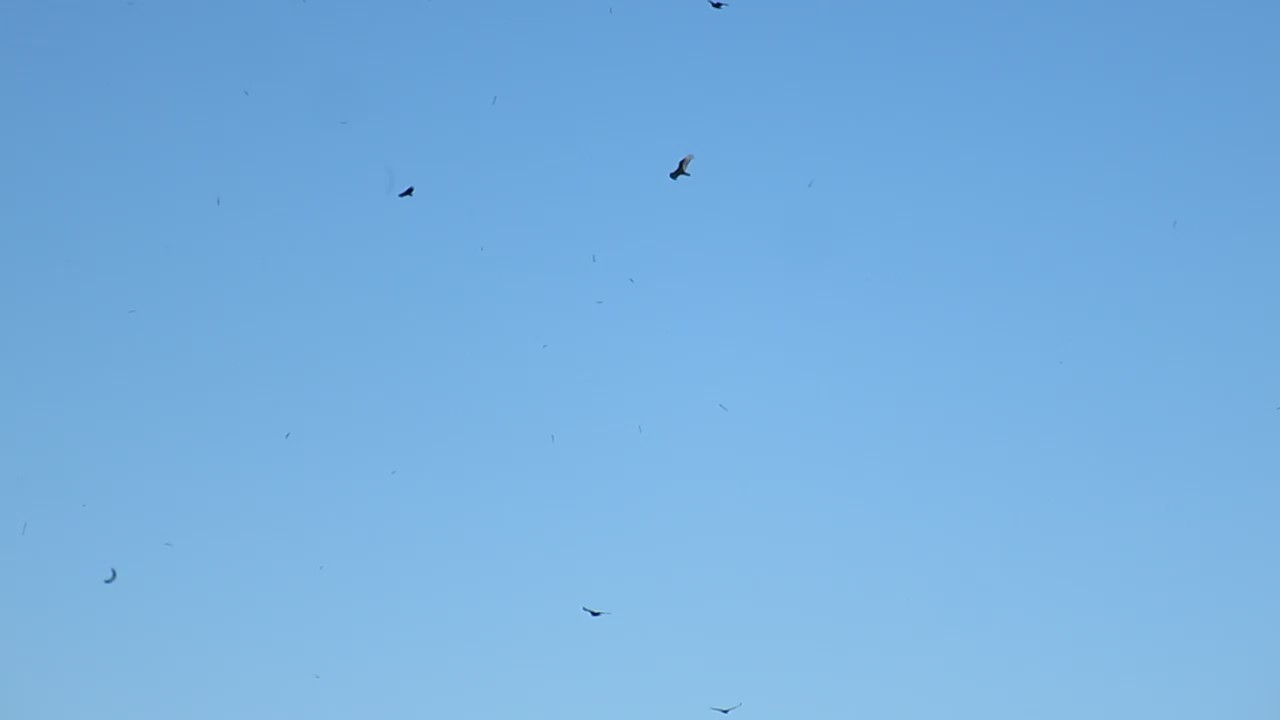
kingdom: Animalia
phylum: Chordata
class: Aves
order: Accipitriformes
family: Cathartidae
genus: Cathartes
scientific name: Cathartes aura
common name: Turkey vulture
